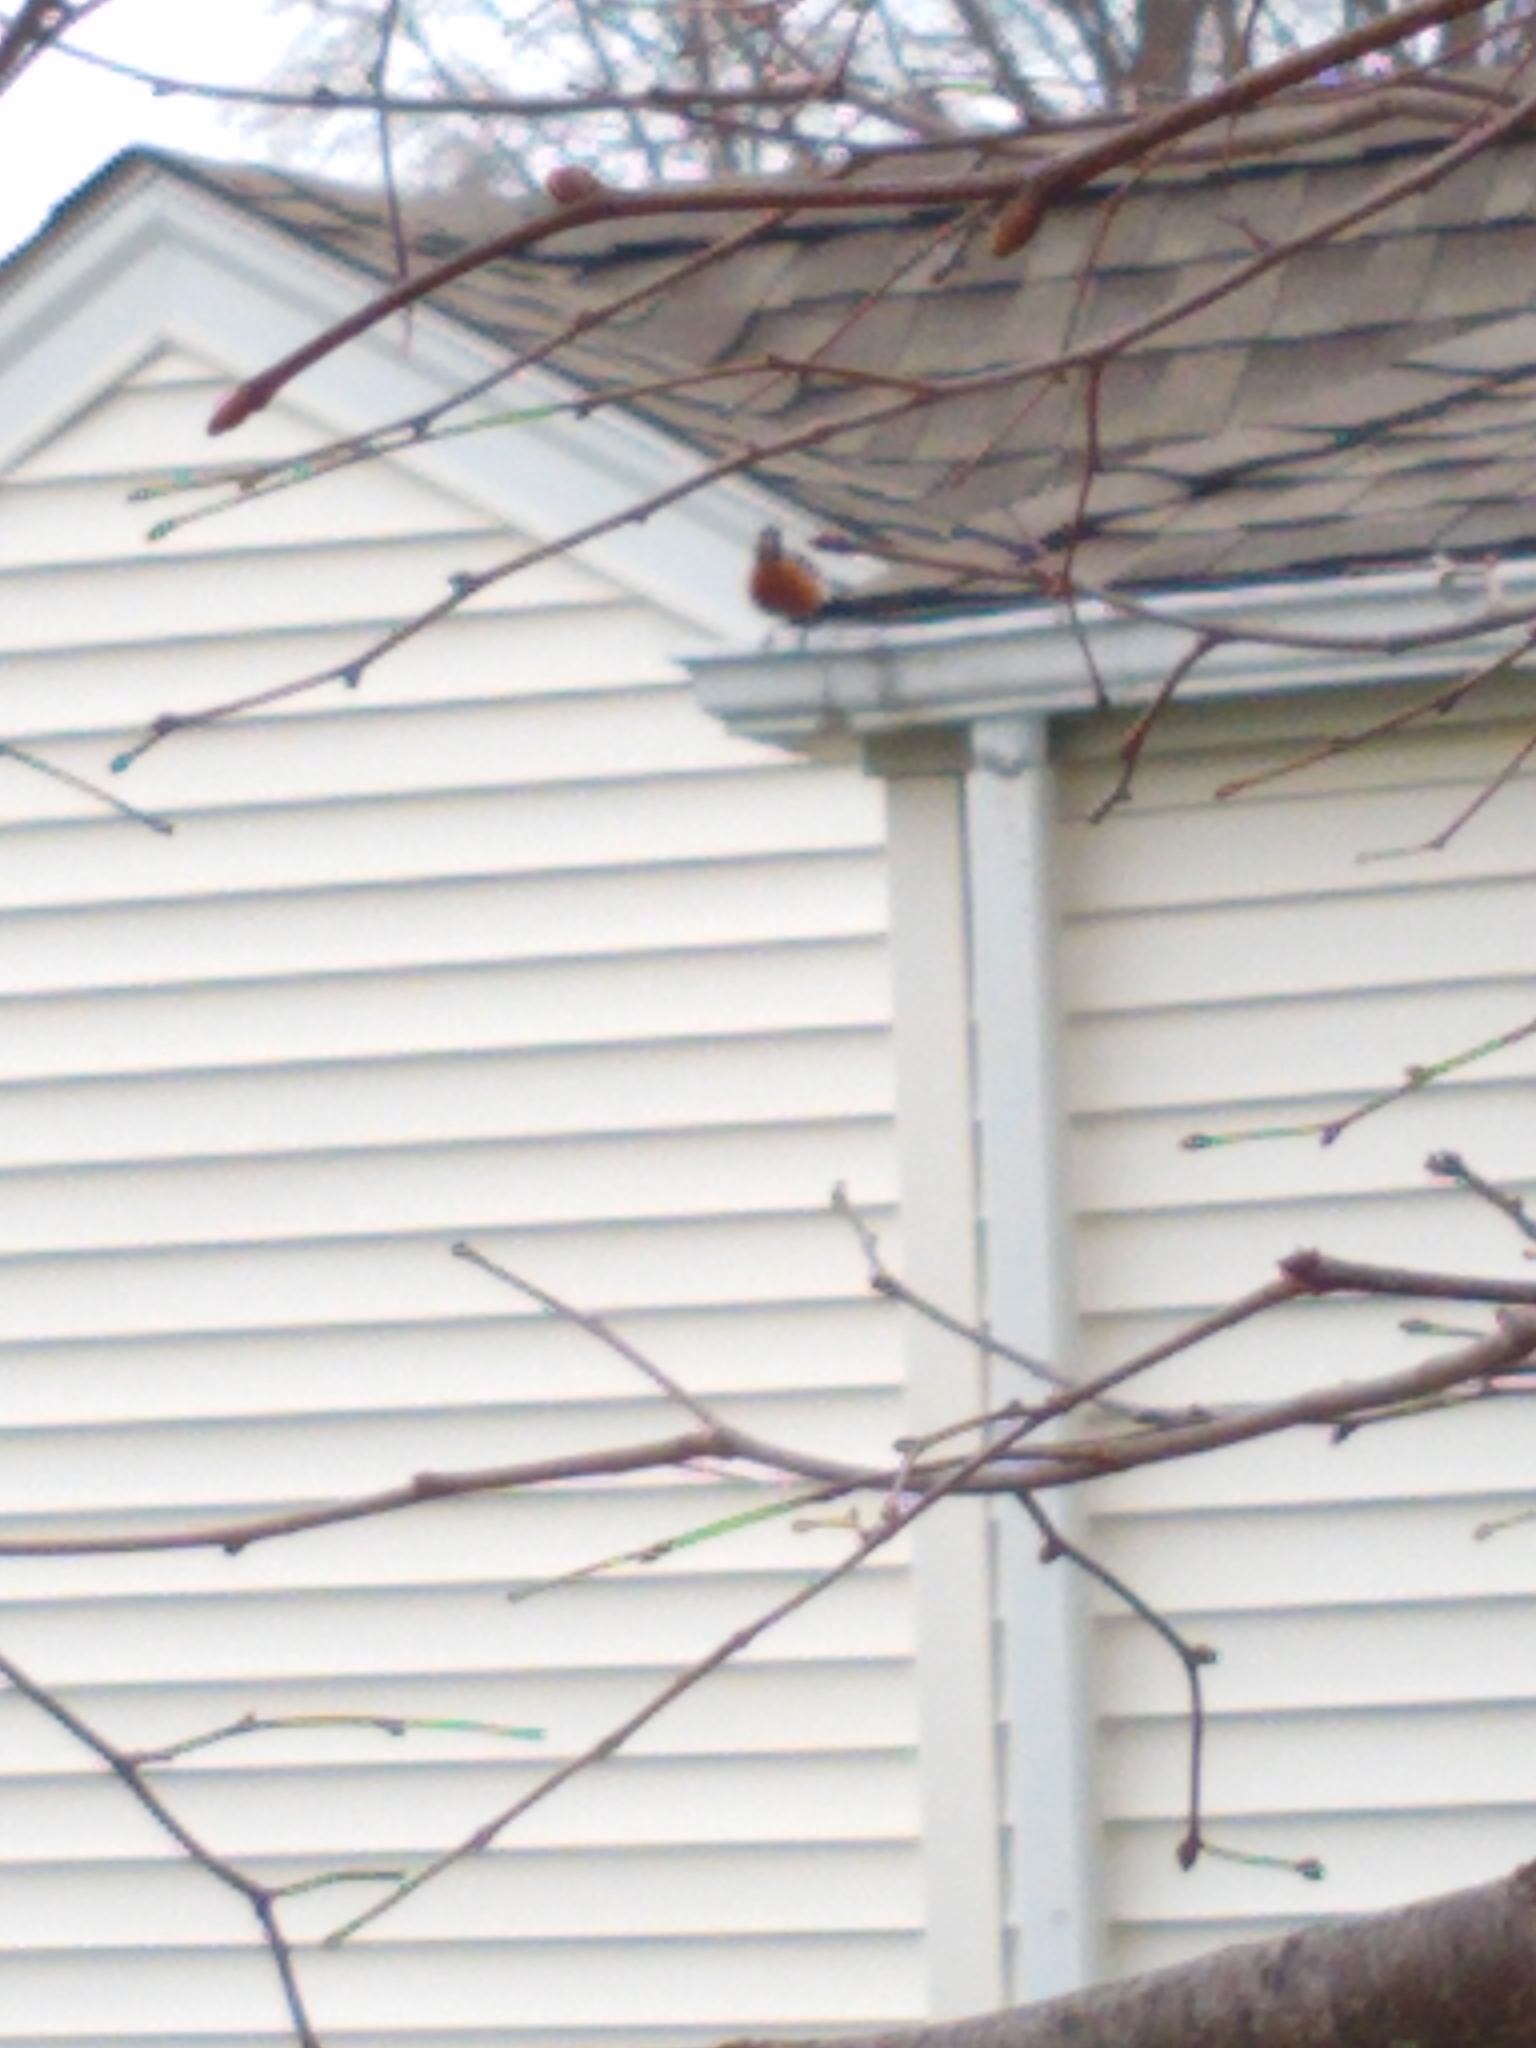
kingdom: Animalia
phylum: Chordata
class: Aves
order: Passeriformes
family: Turdidae
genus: Turdus
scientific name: Turdus migratorius
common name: American robin
